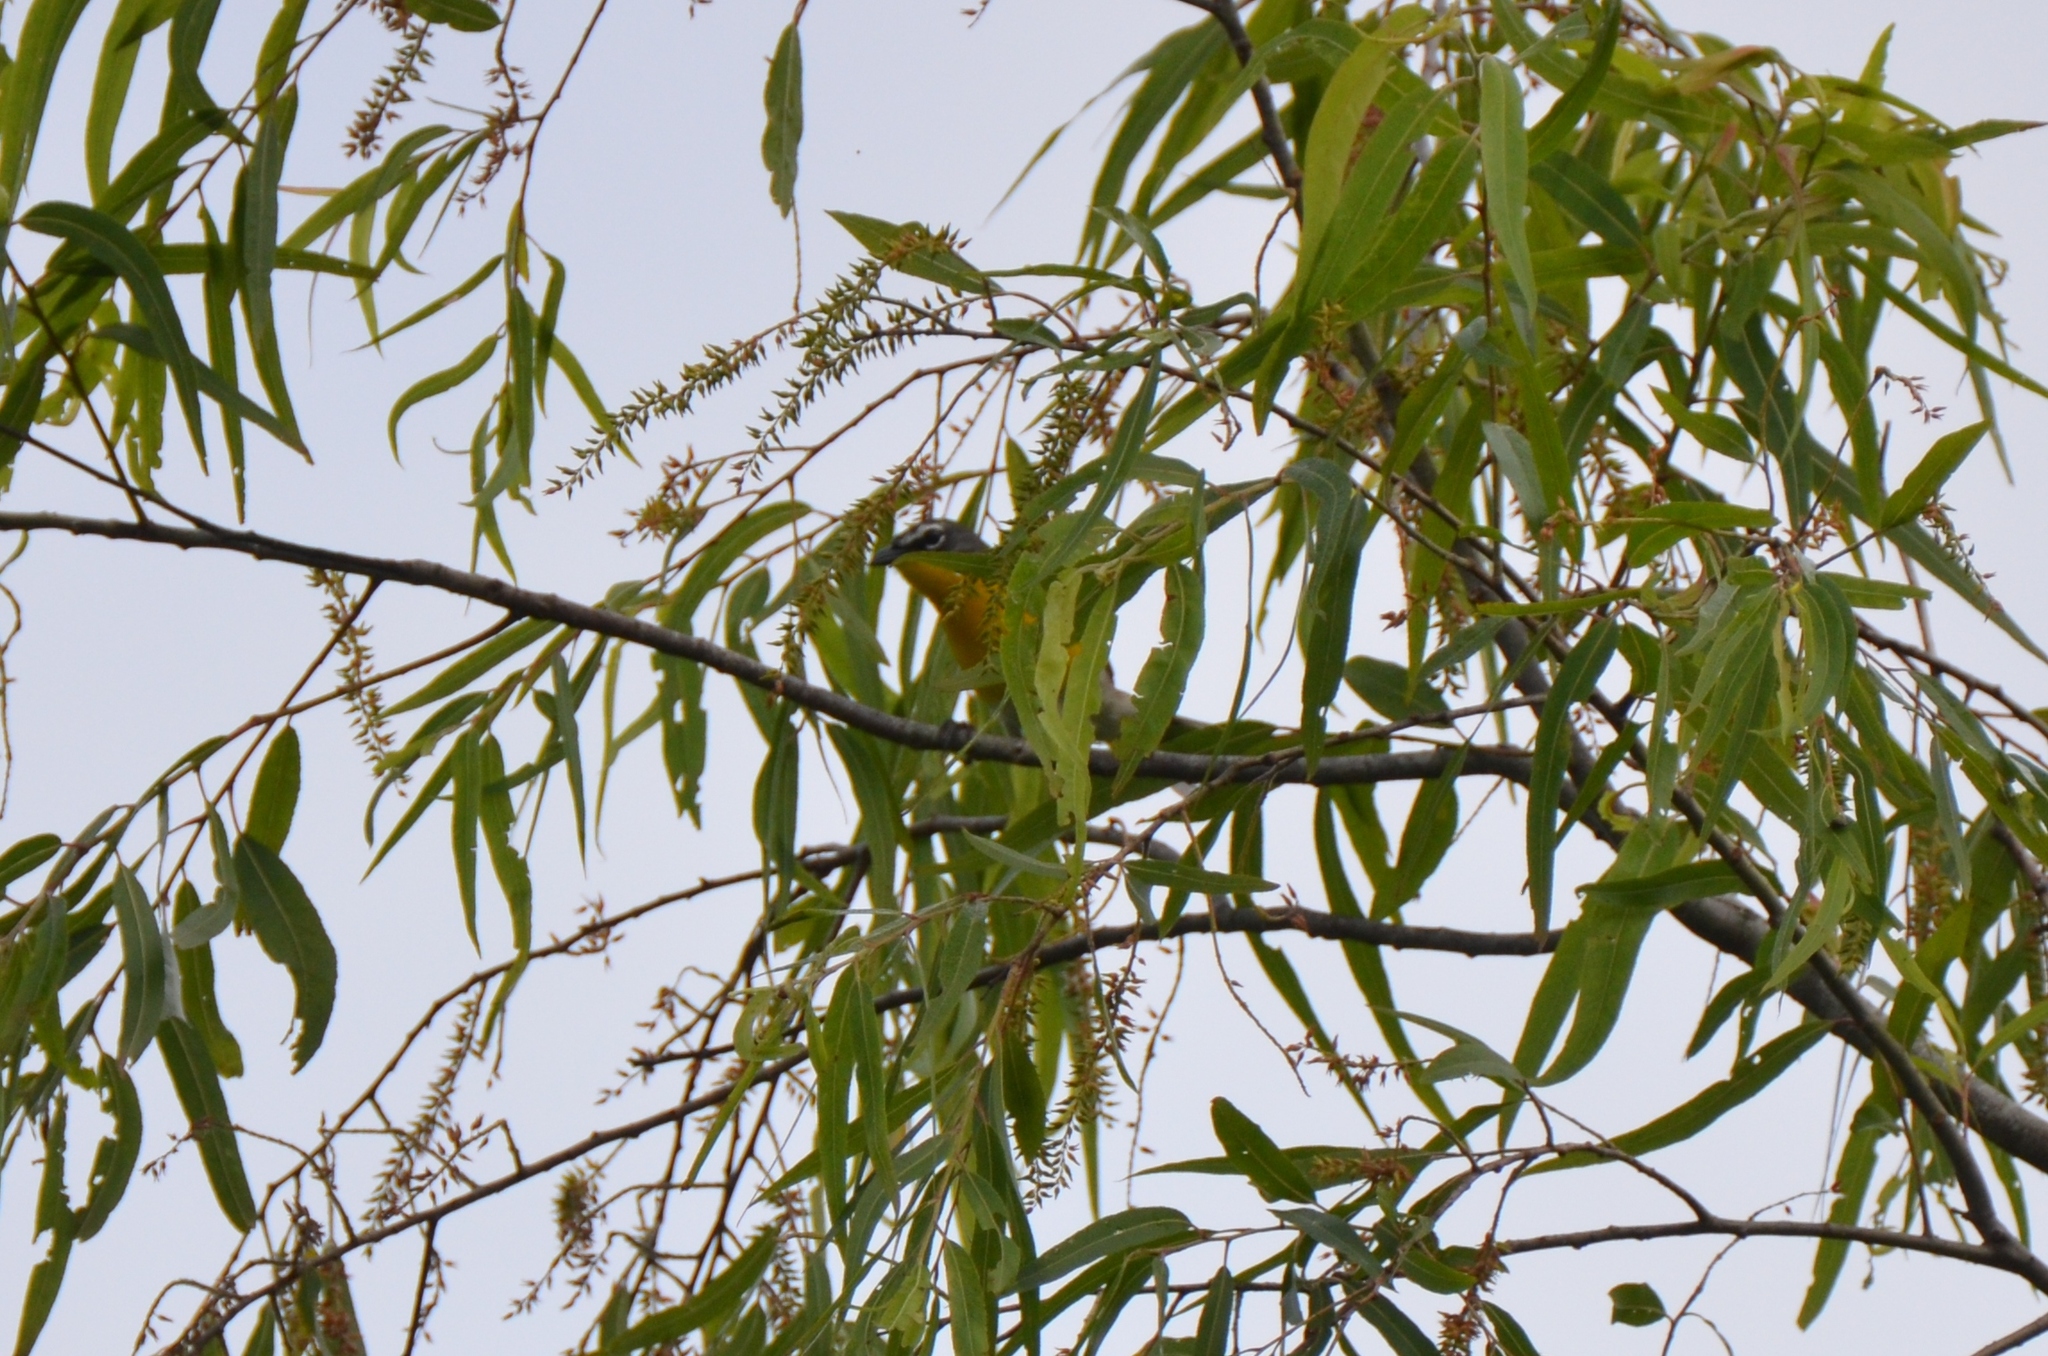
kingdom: Animalia
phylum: Chordata
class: Aves
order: Passeriformes
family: Parulidae
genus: Icteria
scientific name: Icteria virens
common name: Yellow-breasted chat
